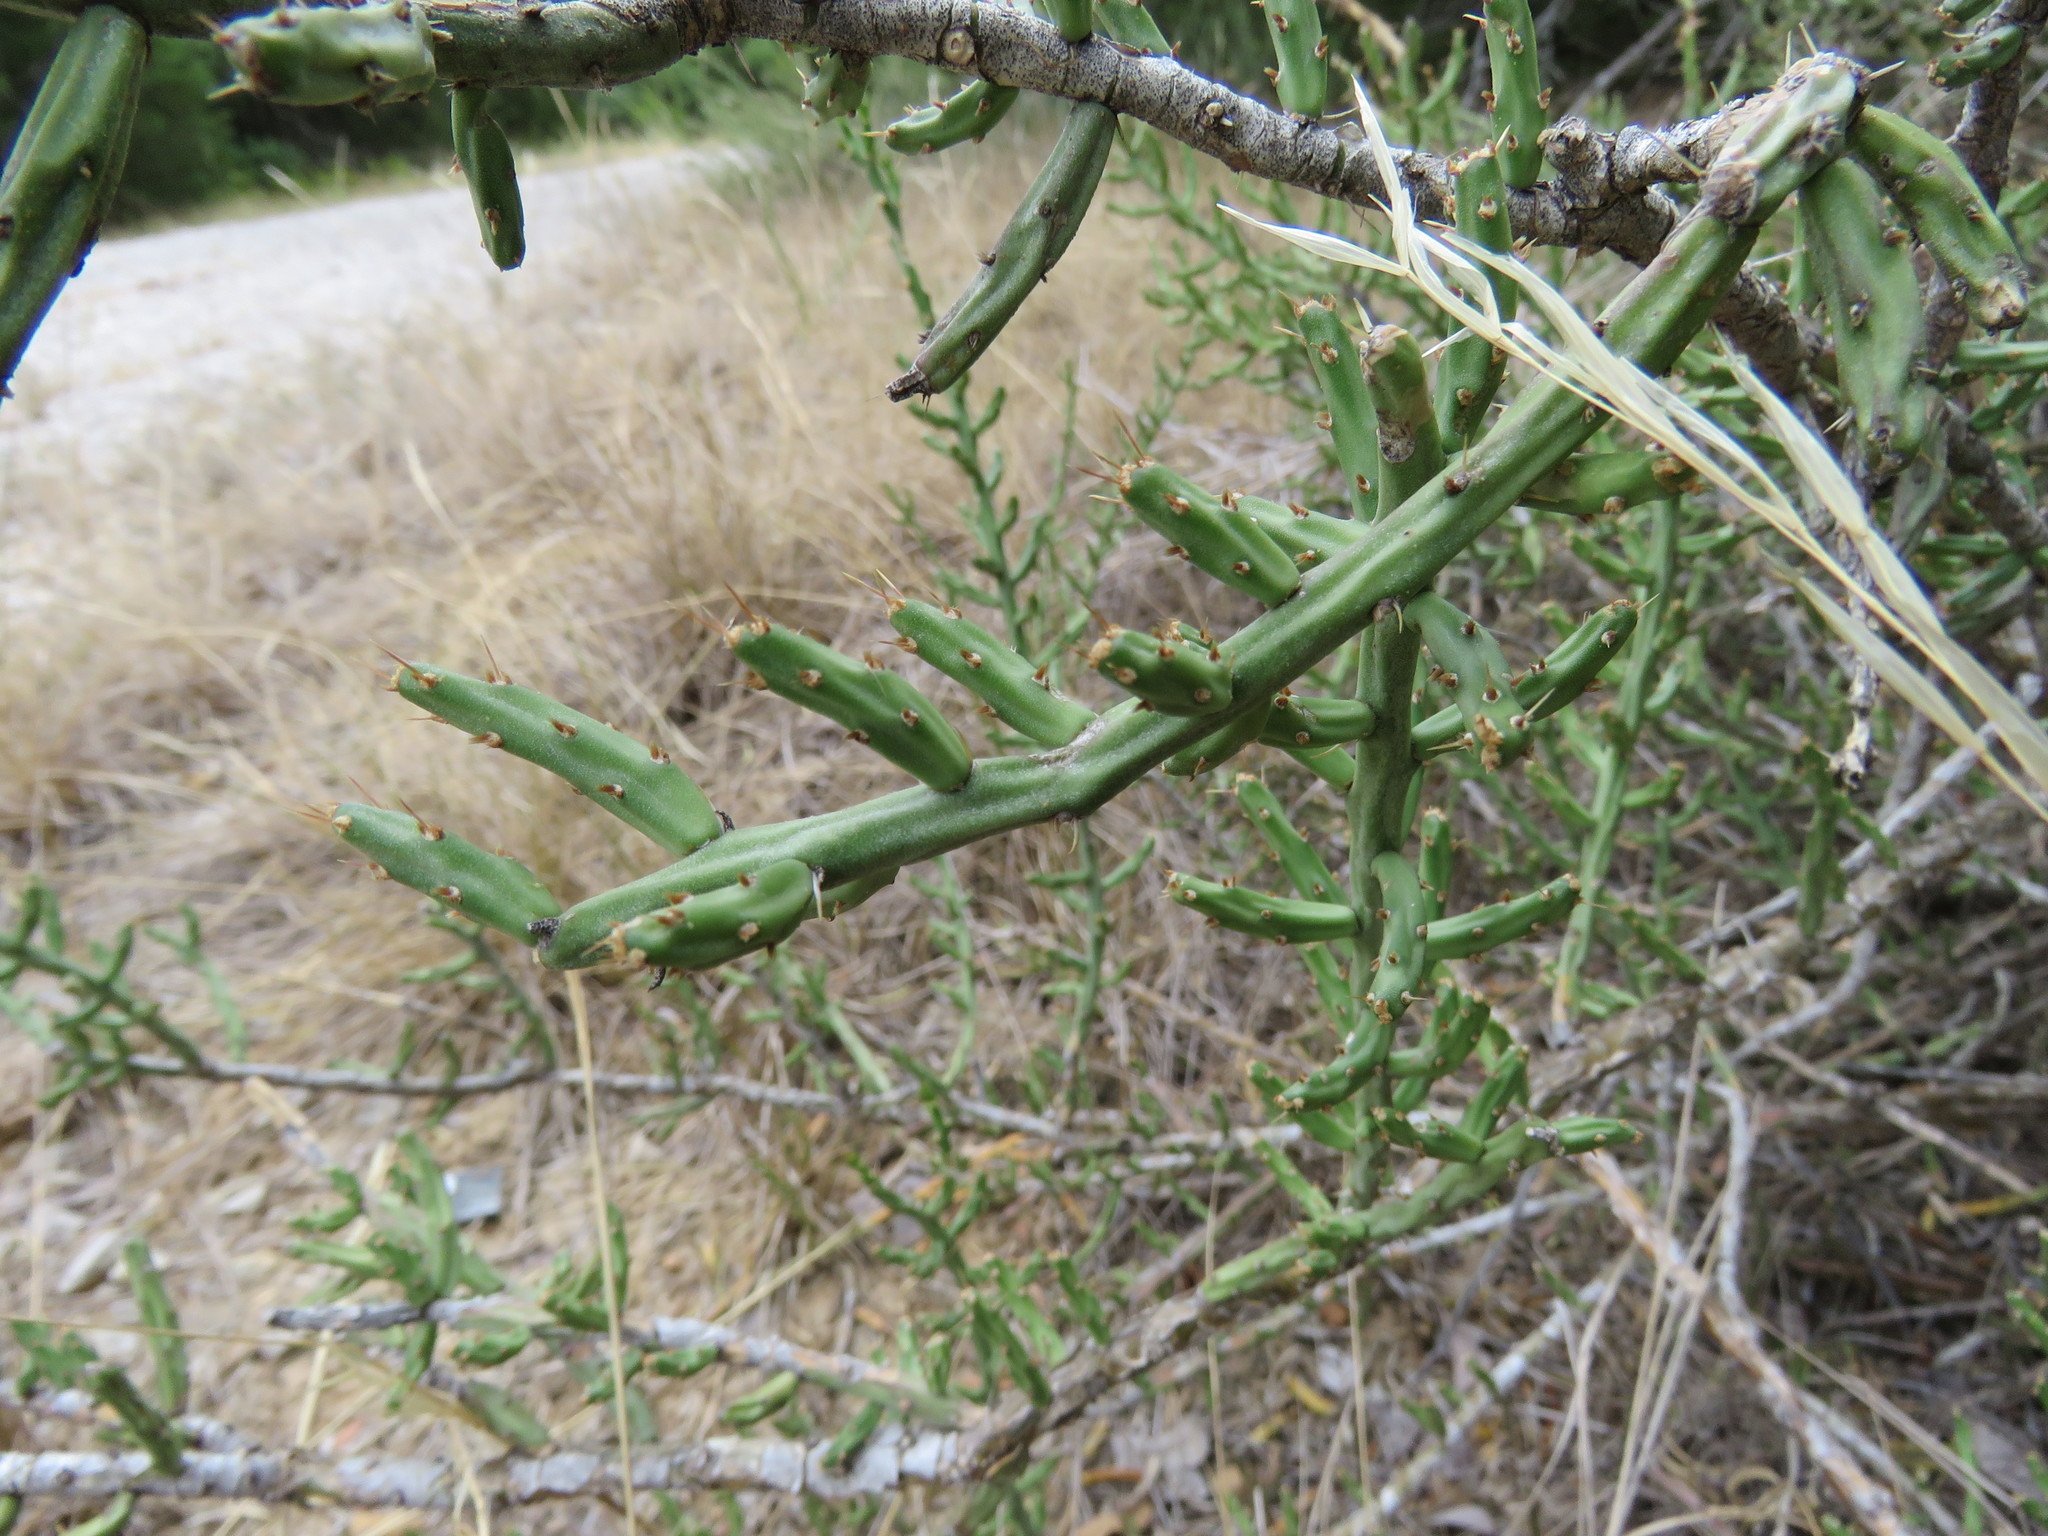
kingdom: Plantae
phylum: Tracheophyta
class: Magnoliopsida
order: Caryophyllales
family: Cactaceae
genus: Cylindropuntia
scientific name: Cylindropuntia leptocaulis
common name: Christmas cactus
